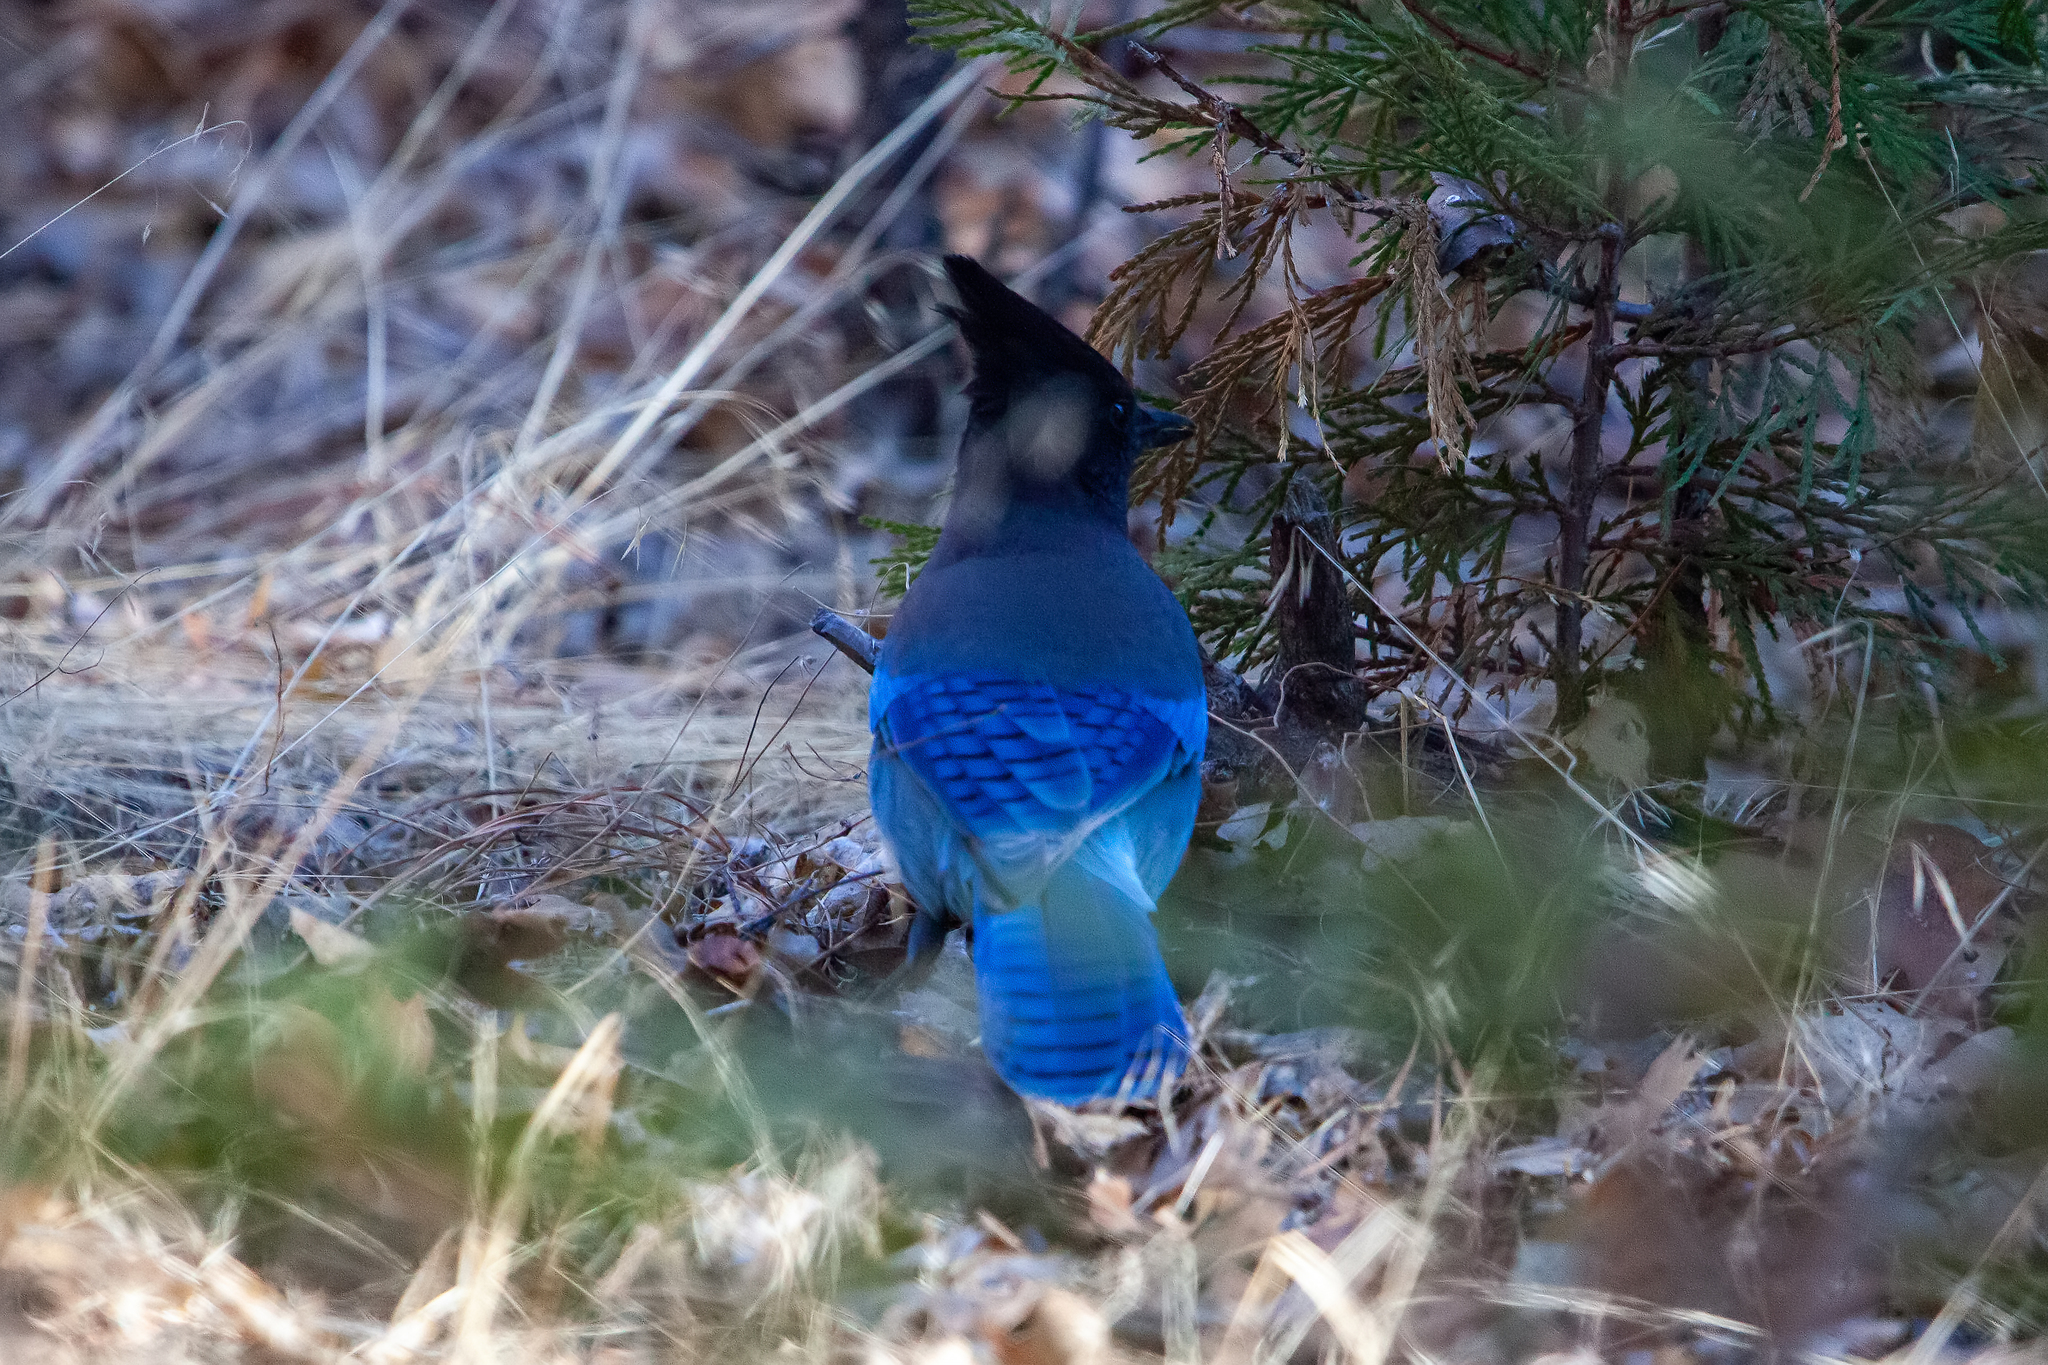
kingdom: Animalia
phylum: Chordata
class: Aves
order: Passeriformes
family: Corvidae
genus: Cyanocitta
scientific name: Cyanocitta stelleri
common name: Steller's jay
